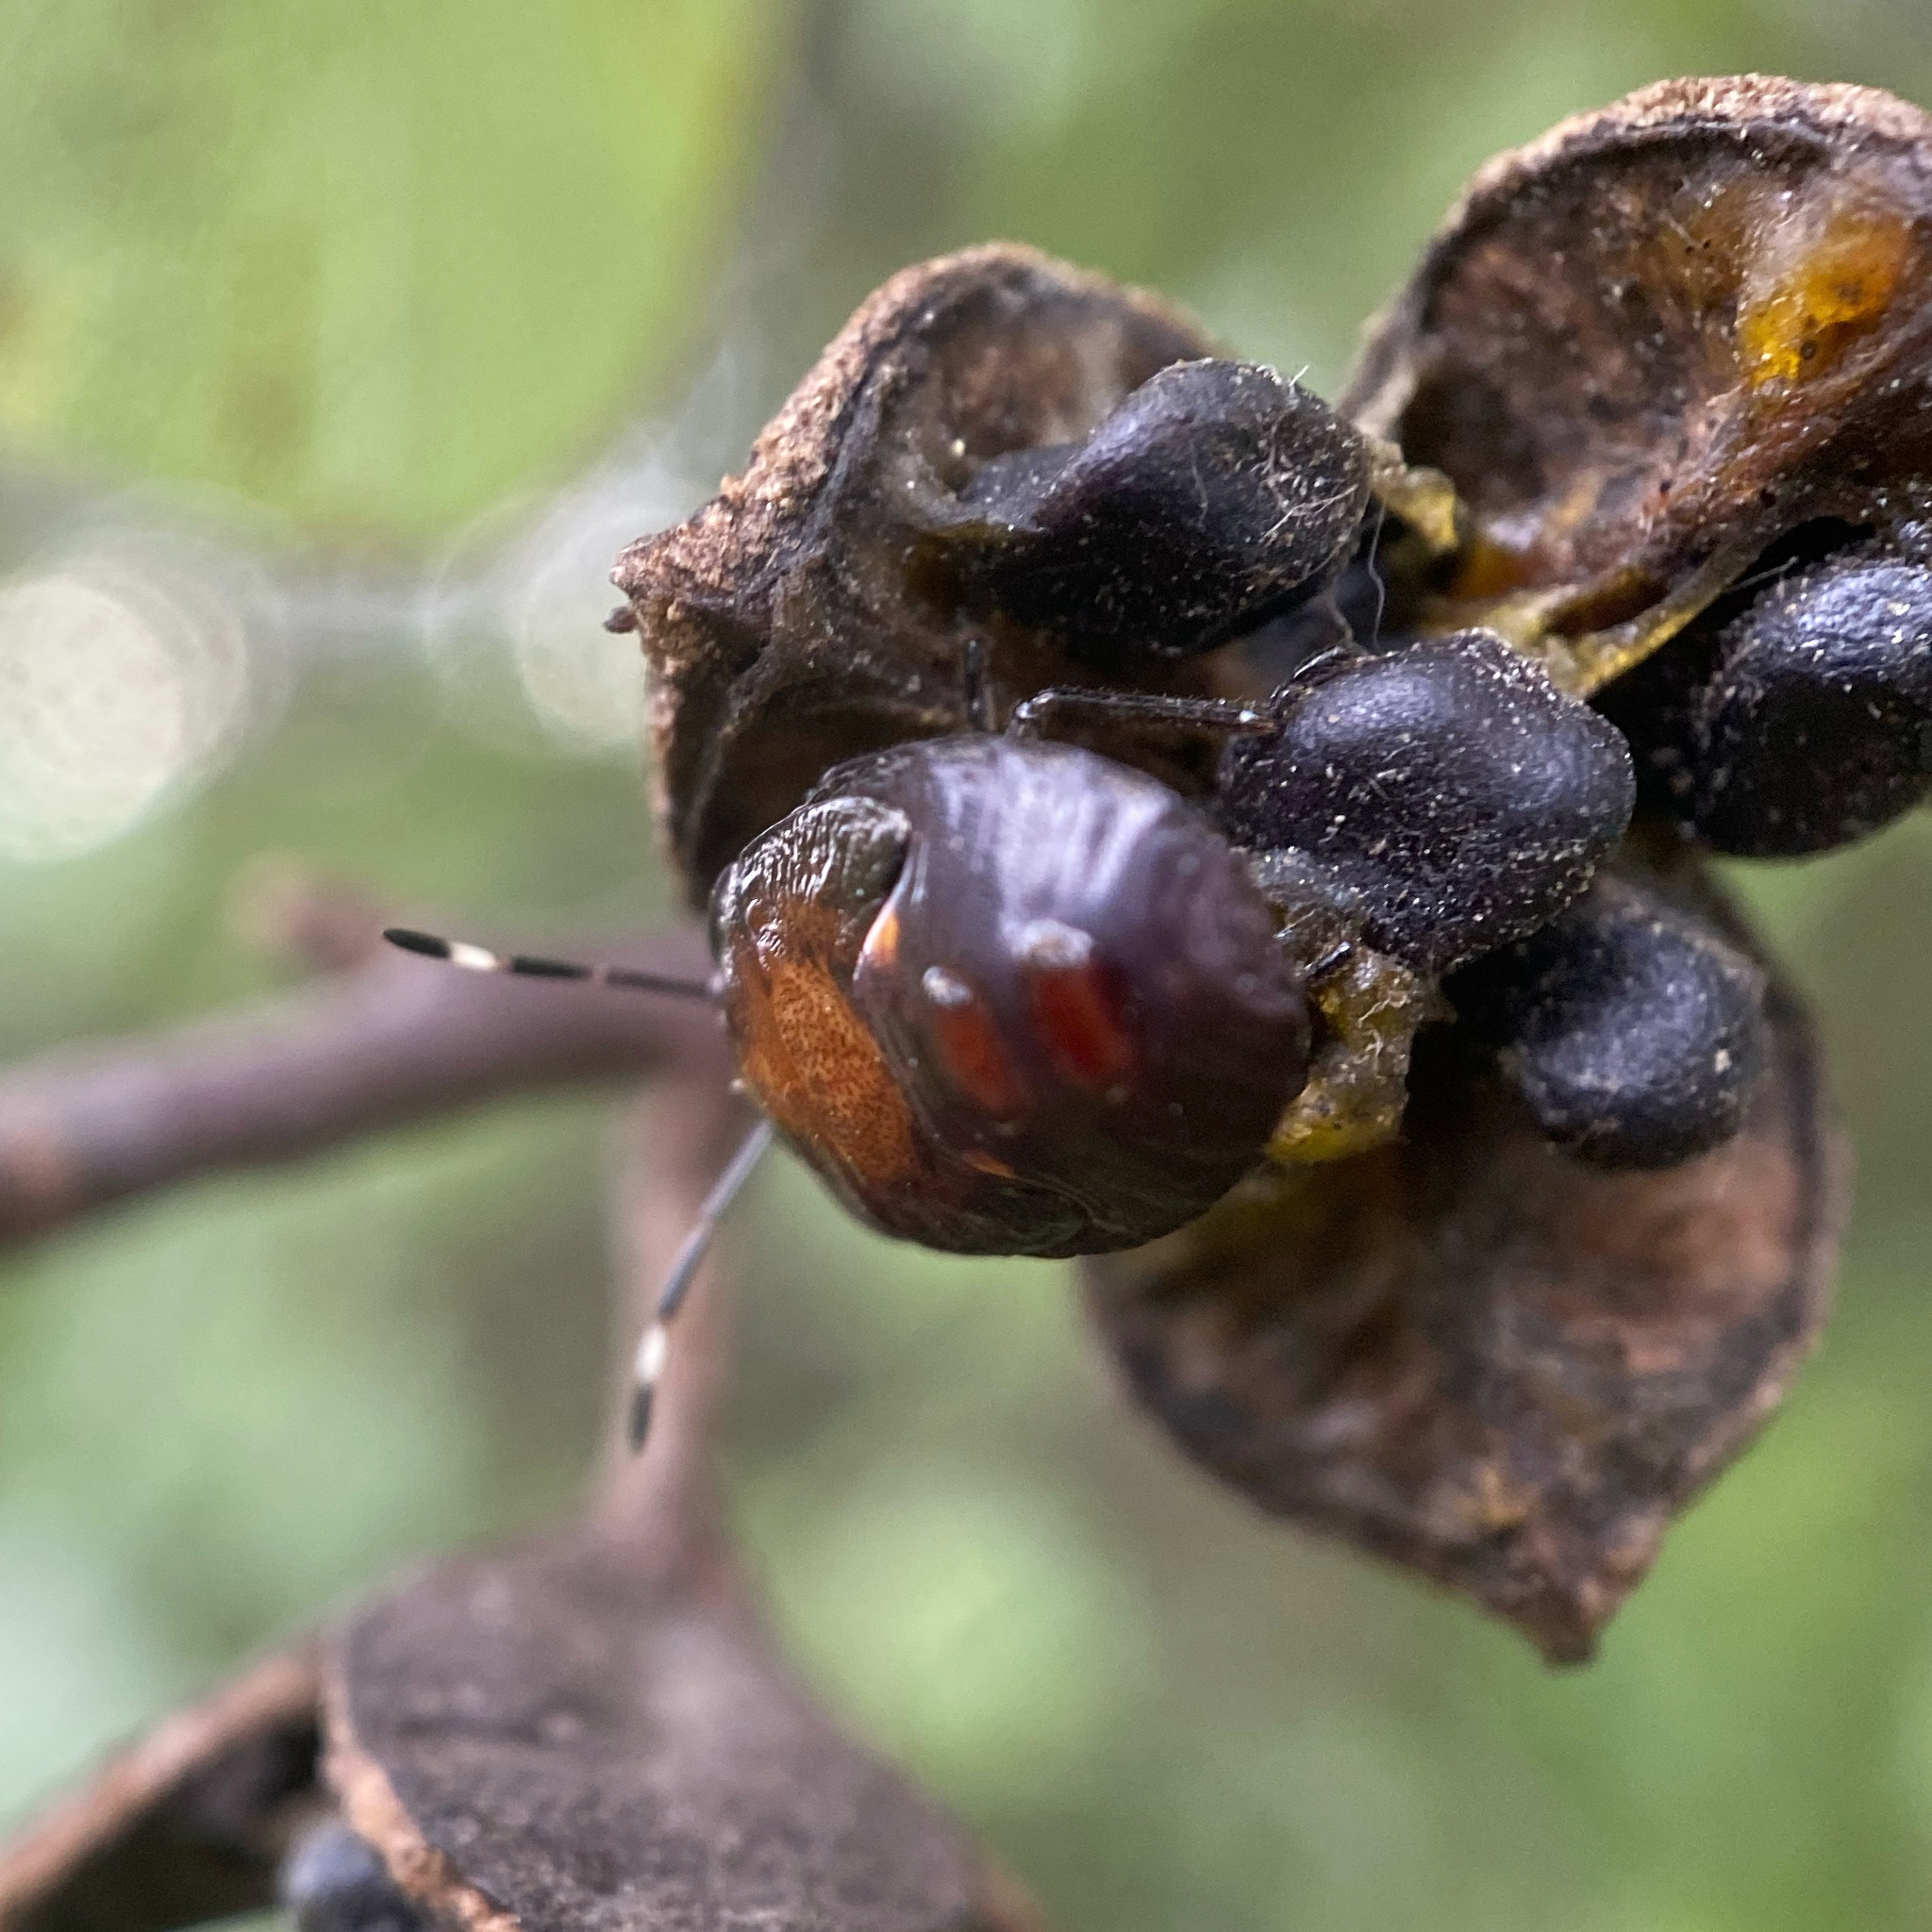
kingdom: Animalia
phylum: Arthropoda
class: Insecta
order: Hemiptera
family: Pentatomidae
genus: Monteithiella
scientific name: Monteithiella
